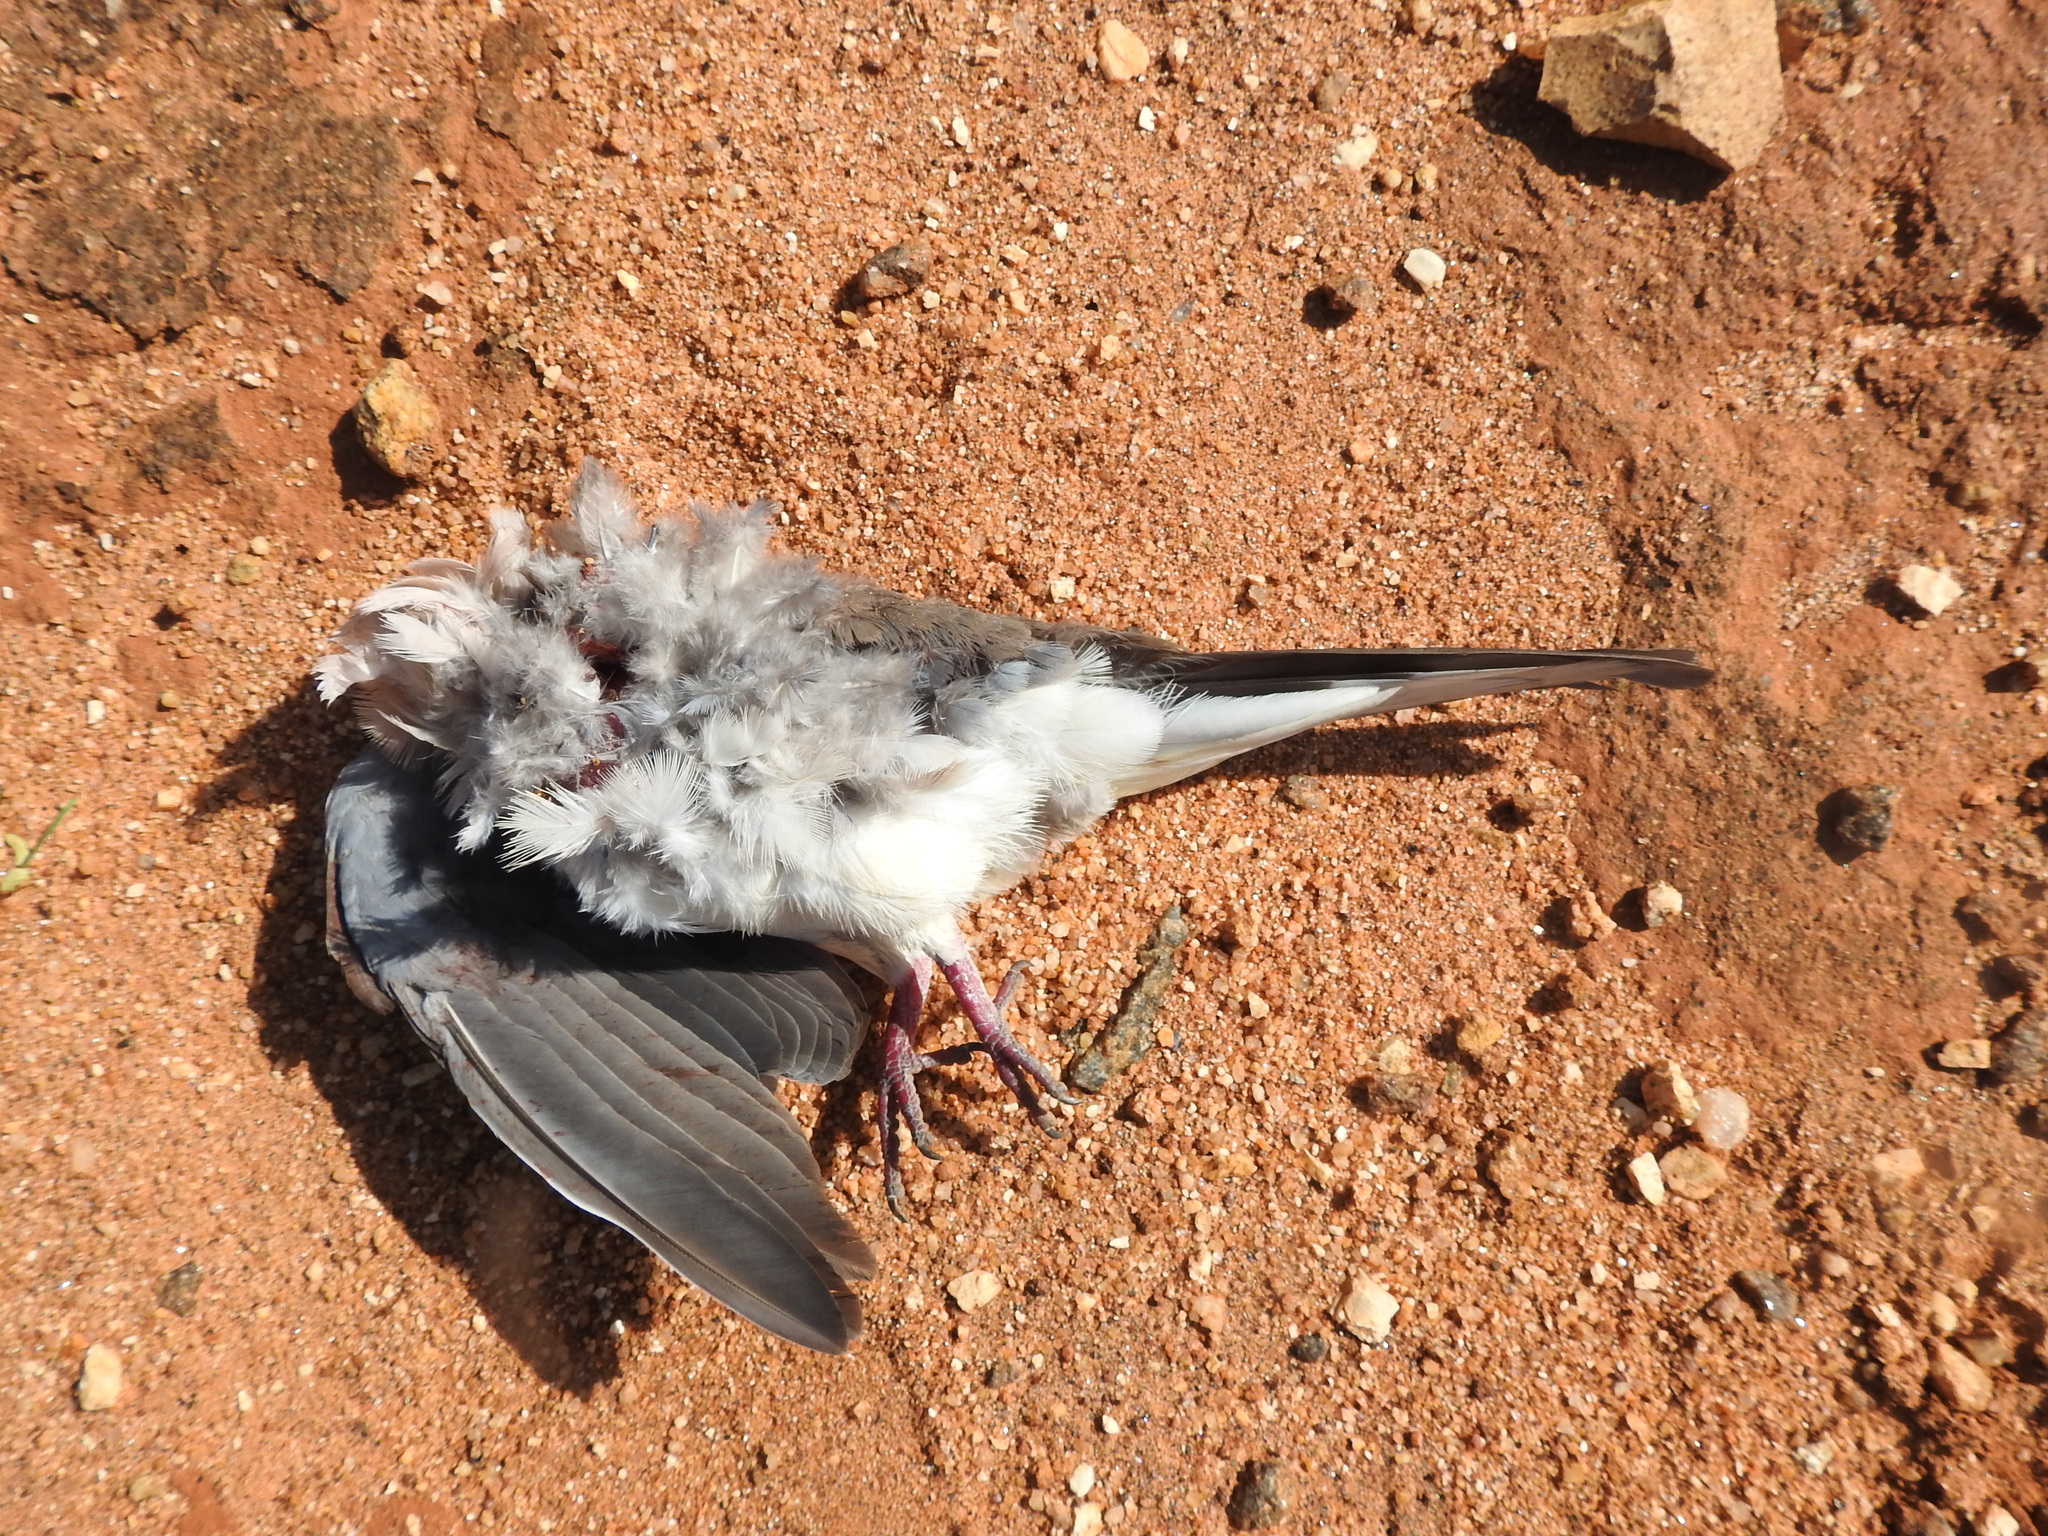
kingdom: Animalia
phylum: Chordata
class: Aves
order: Columbiformes
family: Columbidae
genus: Spilopelia
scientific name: Spilopelia senegalensis
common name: Laughing dove
